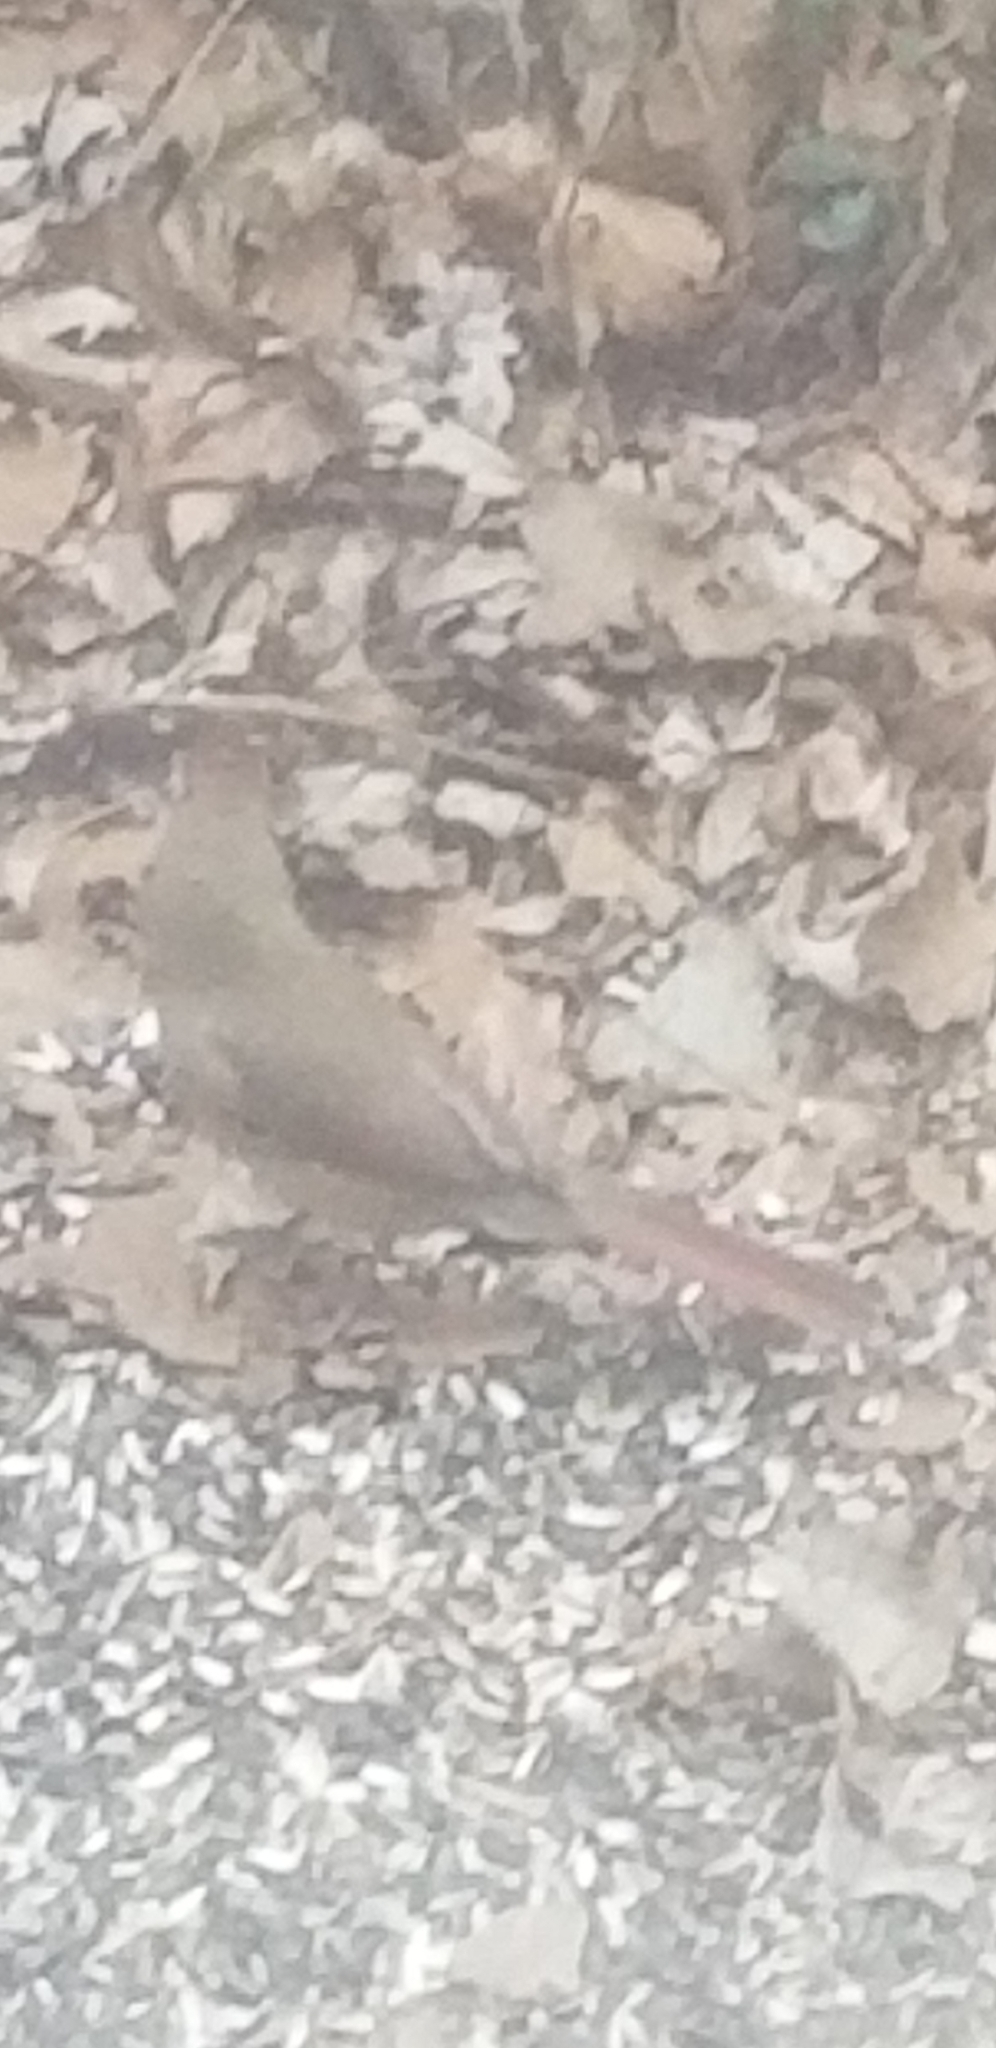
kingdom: Animalia
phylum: Chordata
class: Aves
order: Passeriformes
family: Cardinalidae
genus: Cardinalis
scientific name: Cardinalis cardinalis
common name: Northern cardinal
